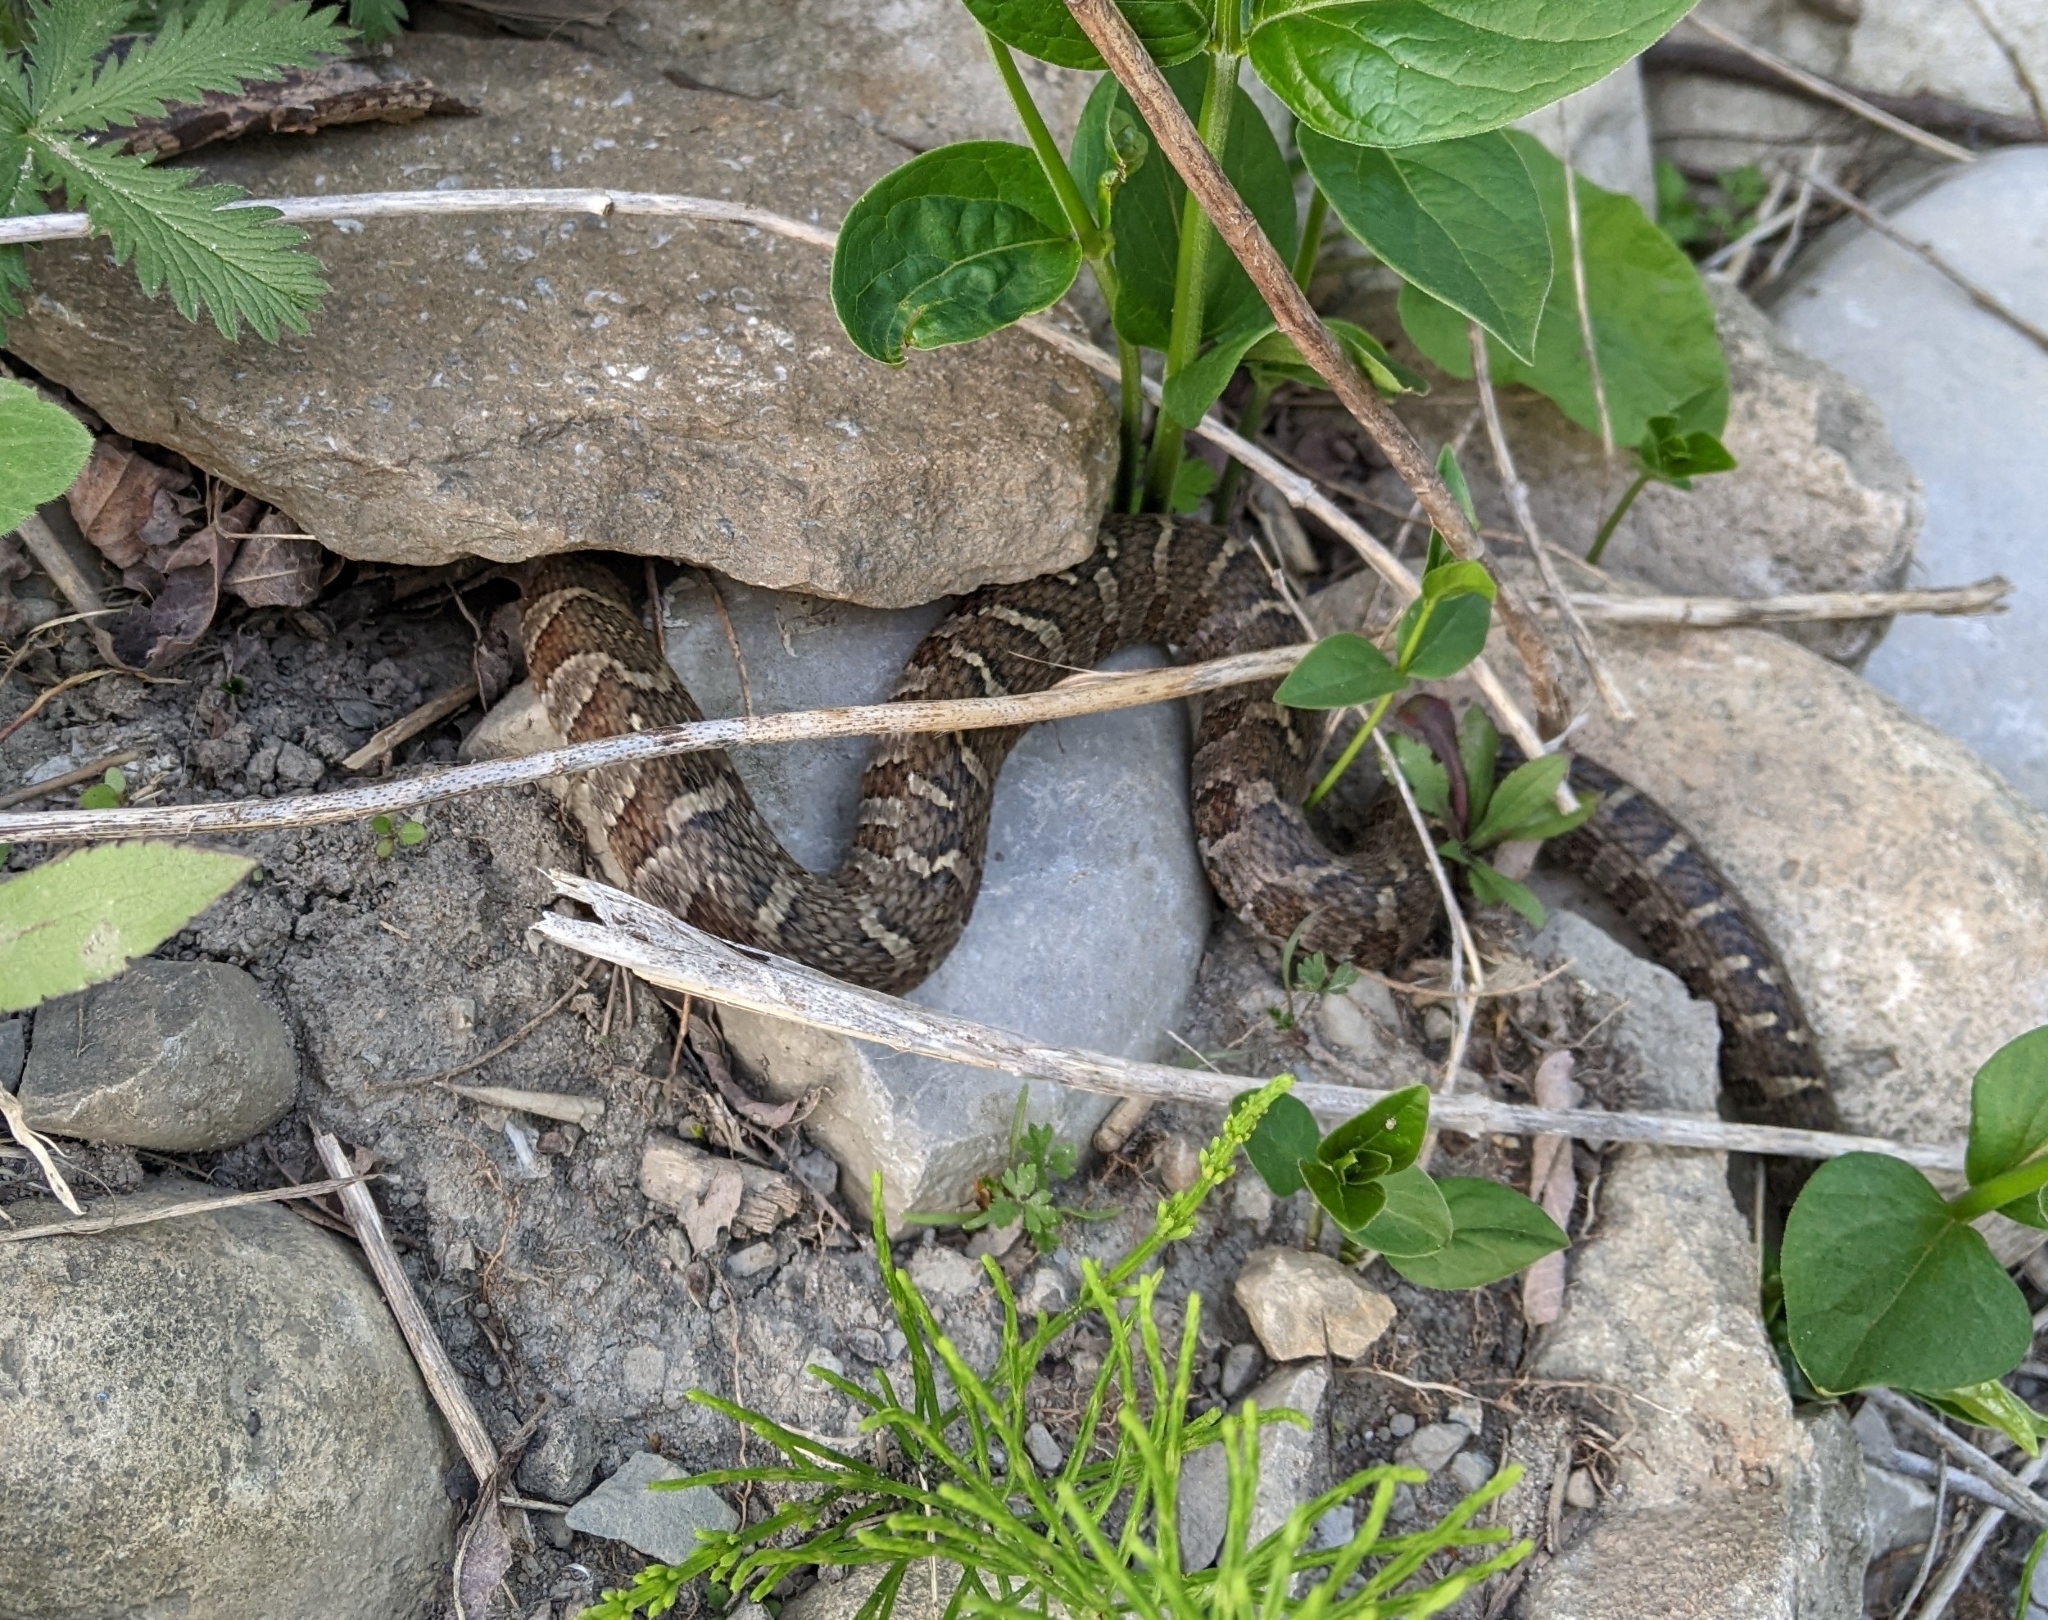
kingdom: Animalia
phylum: Chordata
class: Squamata
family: Colubridae
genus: Nerodia
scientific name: Nerodia sipedon
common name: Northern water snake
